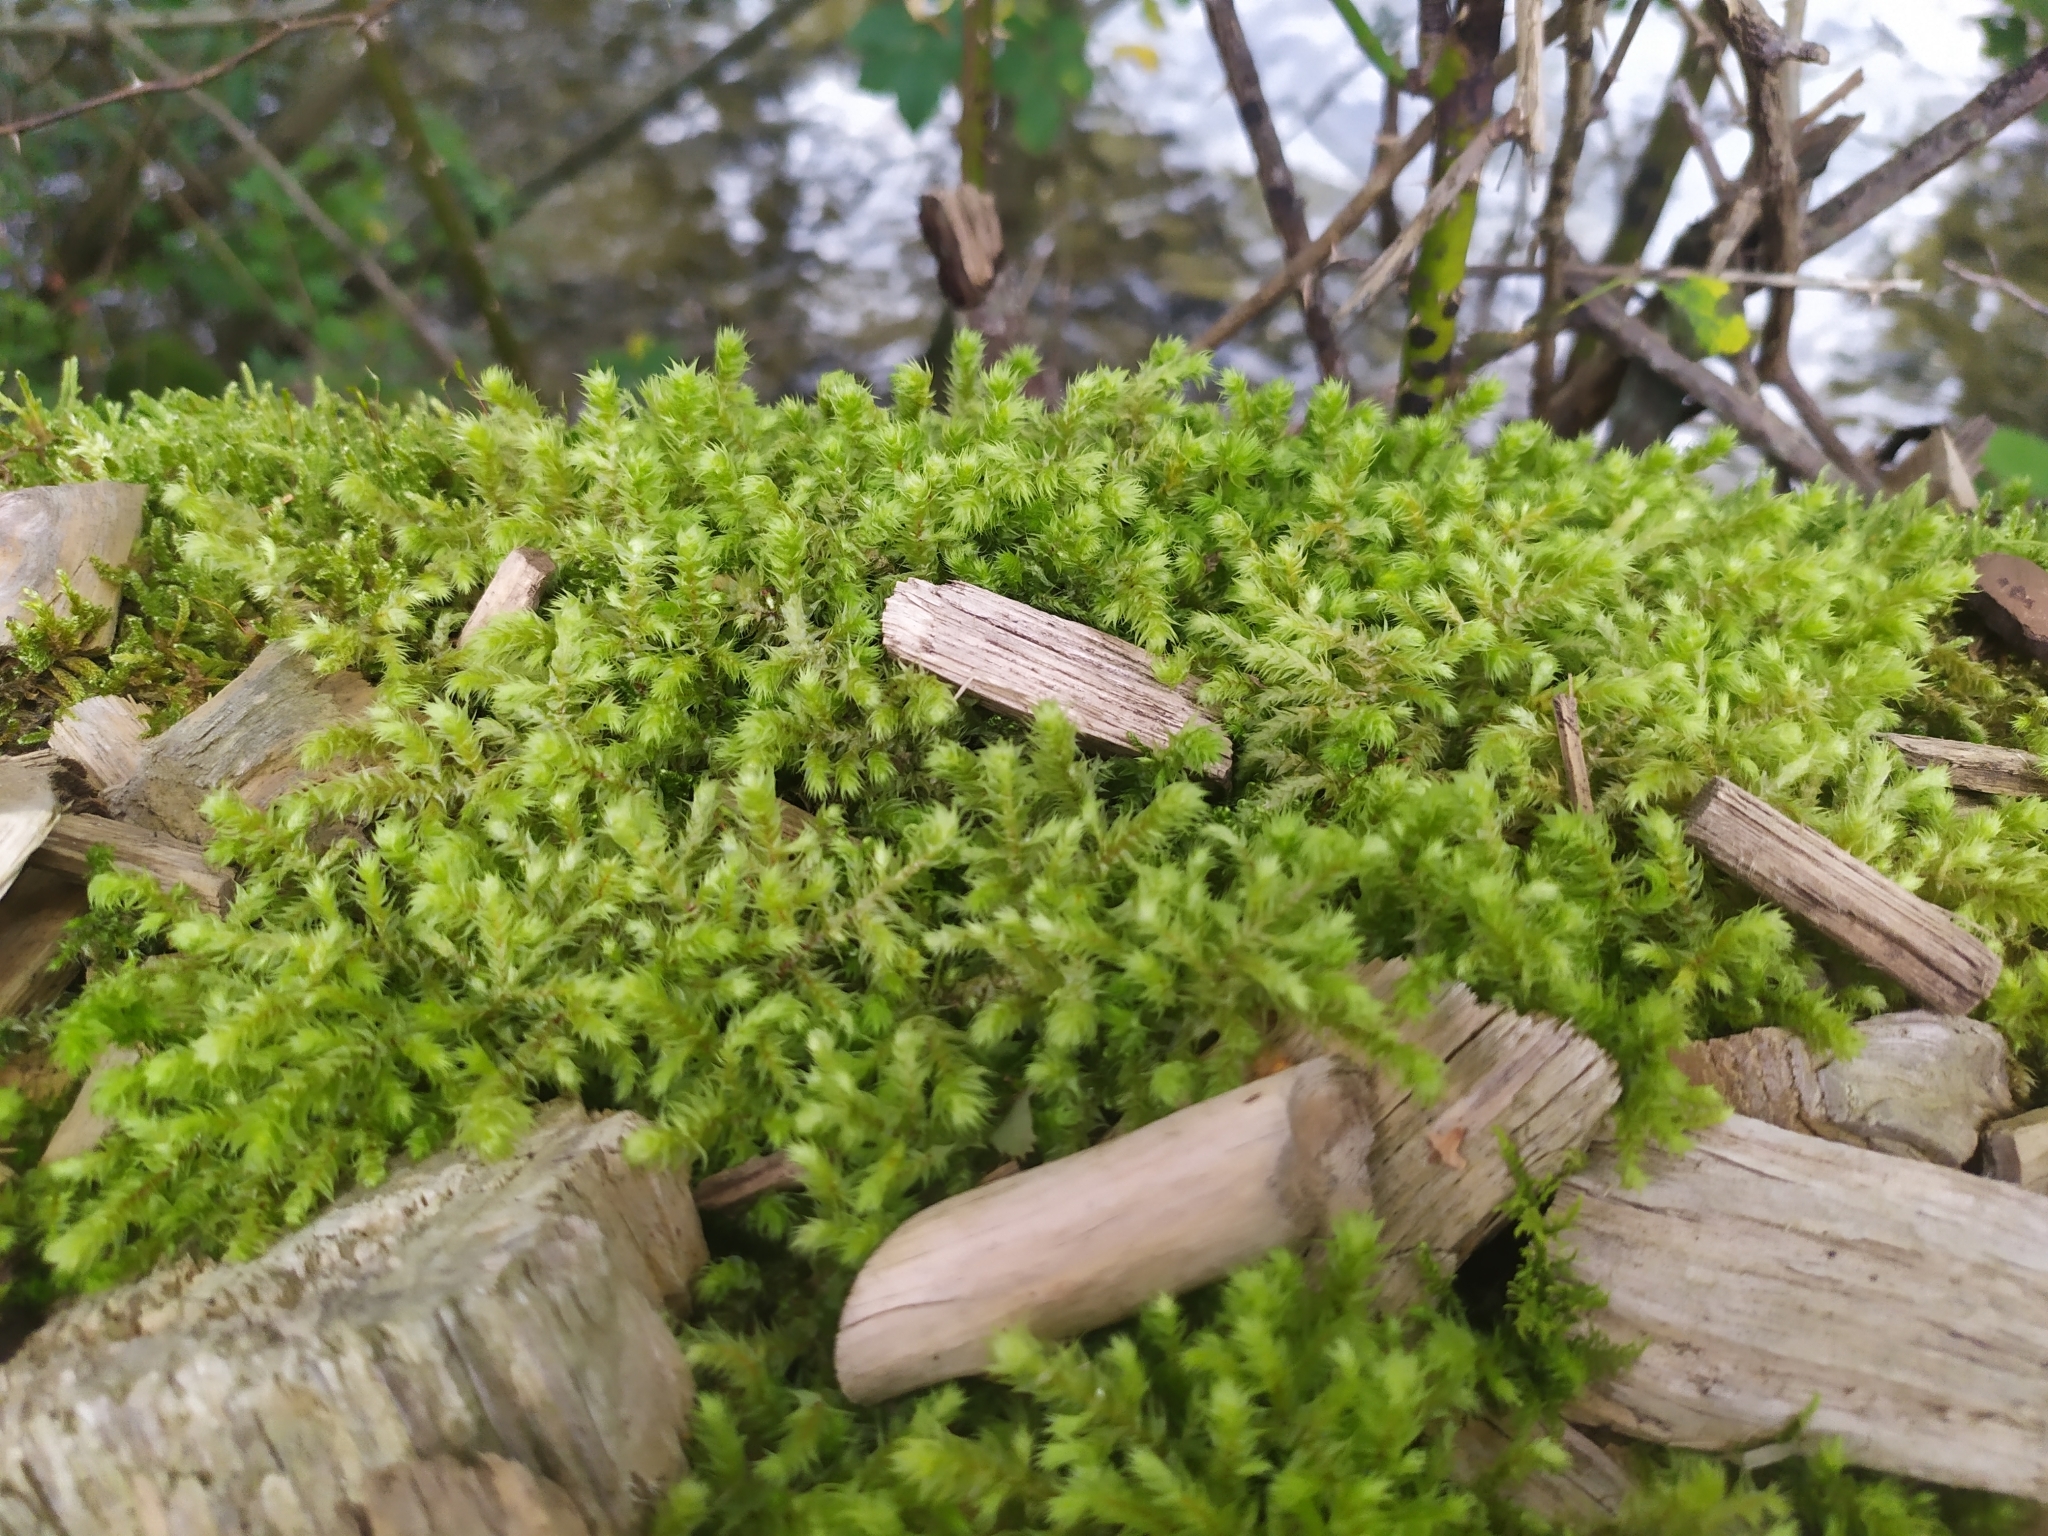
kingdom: Plantae
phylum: Bryophyta
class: Bryopsida
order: Hypnales
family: Hylocomiaceae
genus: Hylocomiadelphus
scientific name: Hylocomiadelphus triquetrus
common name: Rough goose neck moss
